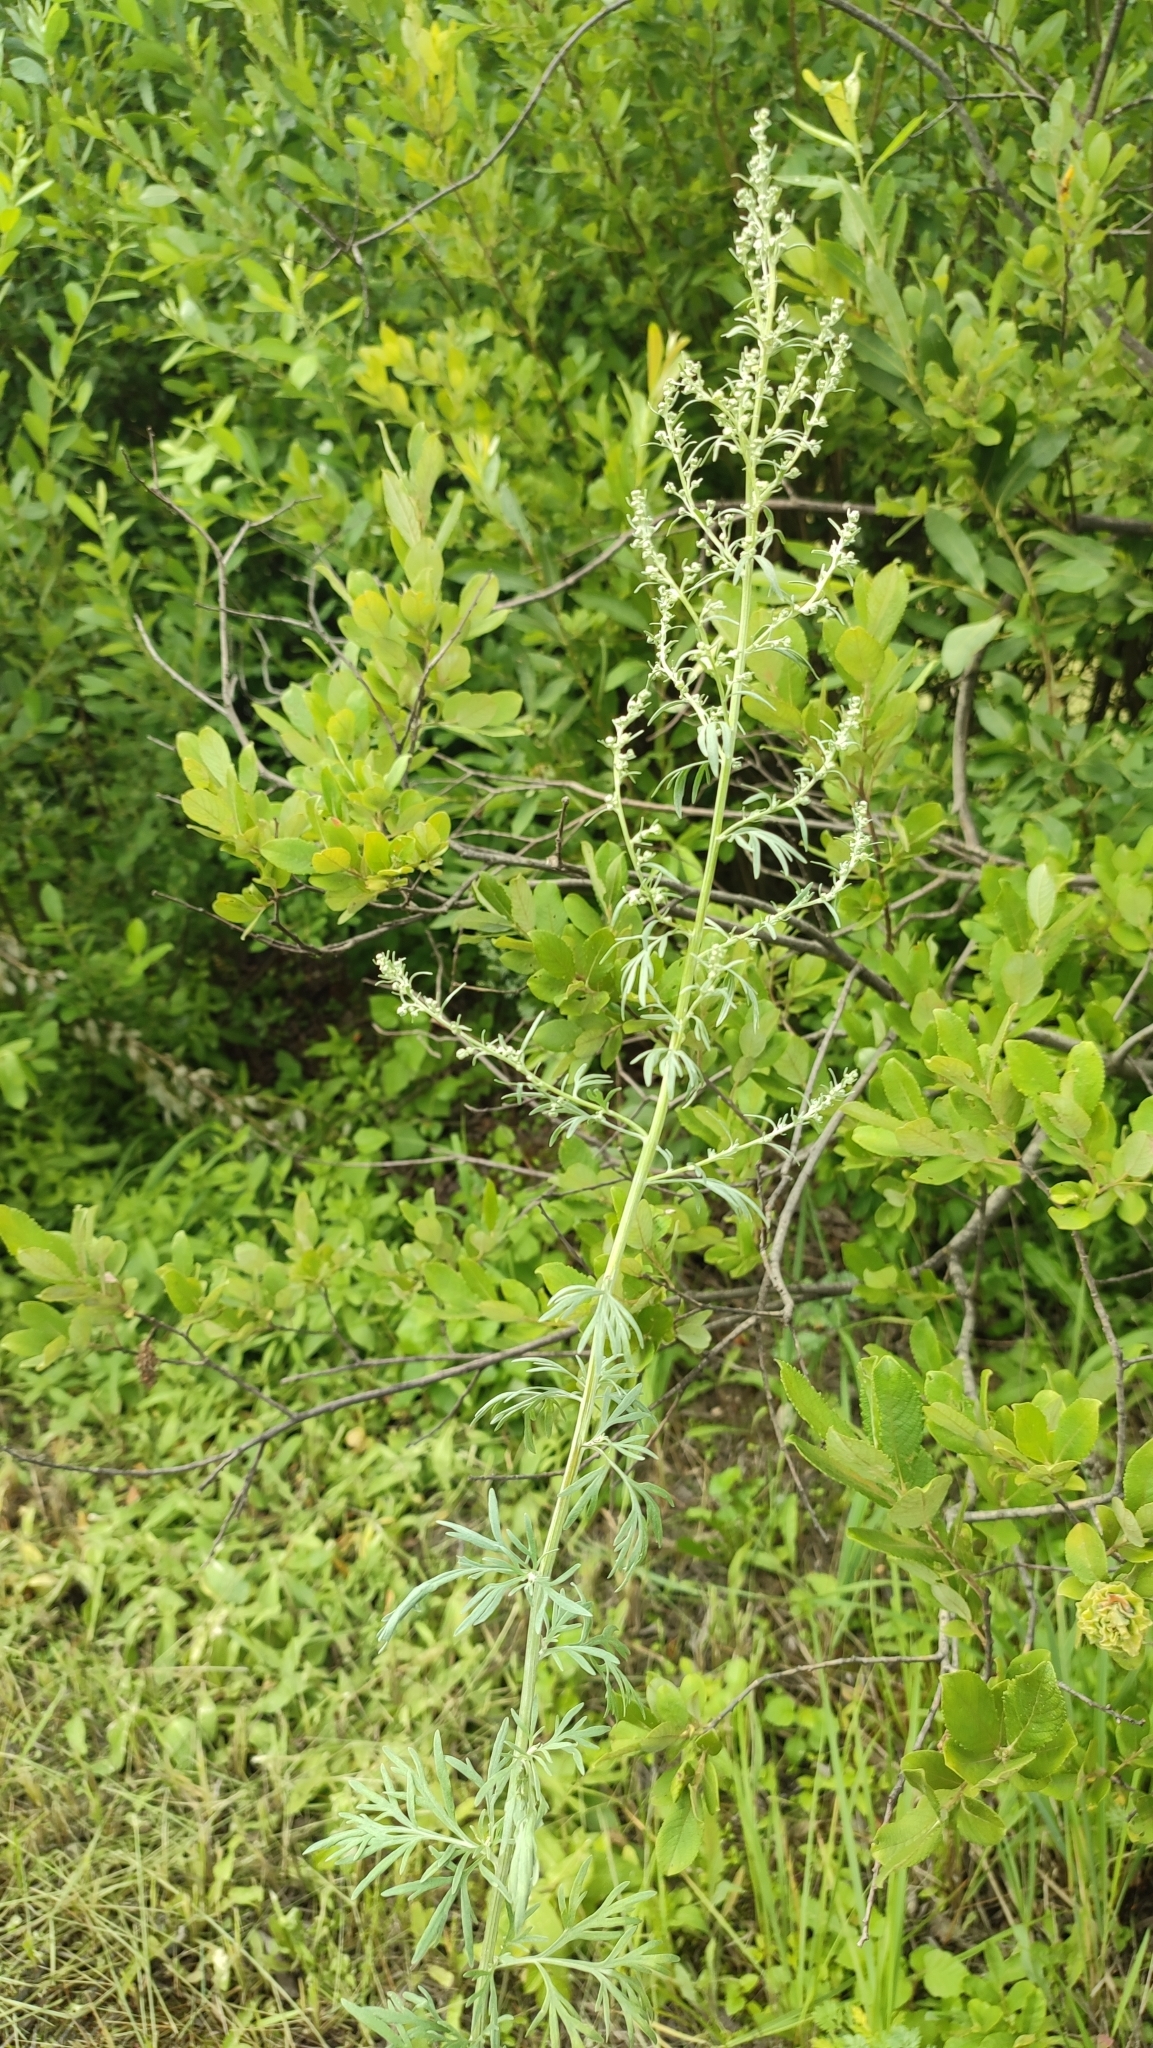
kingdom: Plantae
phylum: Tracheophyta
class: Magnoliopsida
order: Asterales
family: Asteraceae
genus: Artemisia
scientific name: Artemisia absinthium
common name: Wormwood
